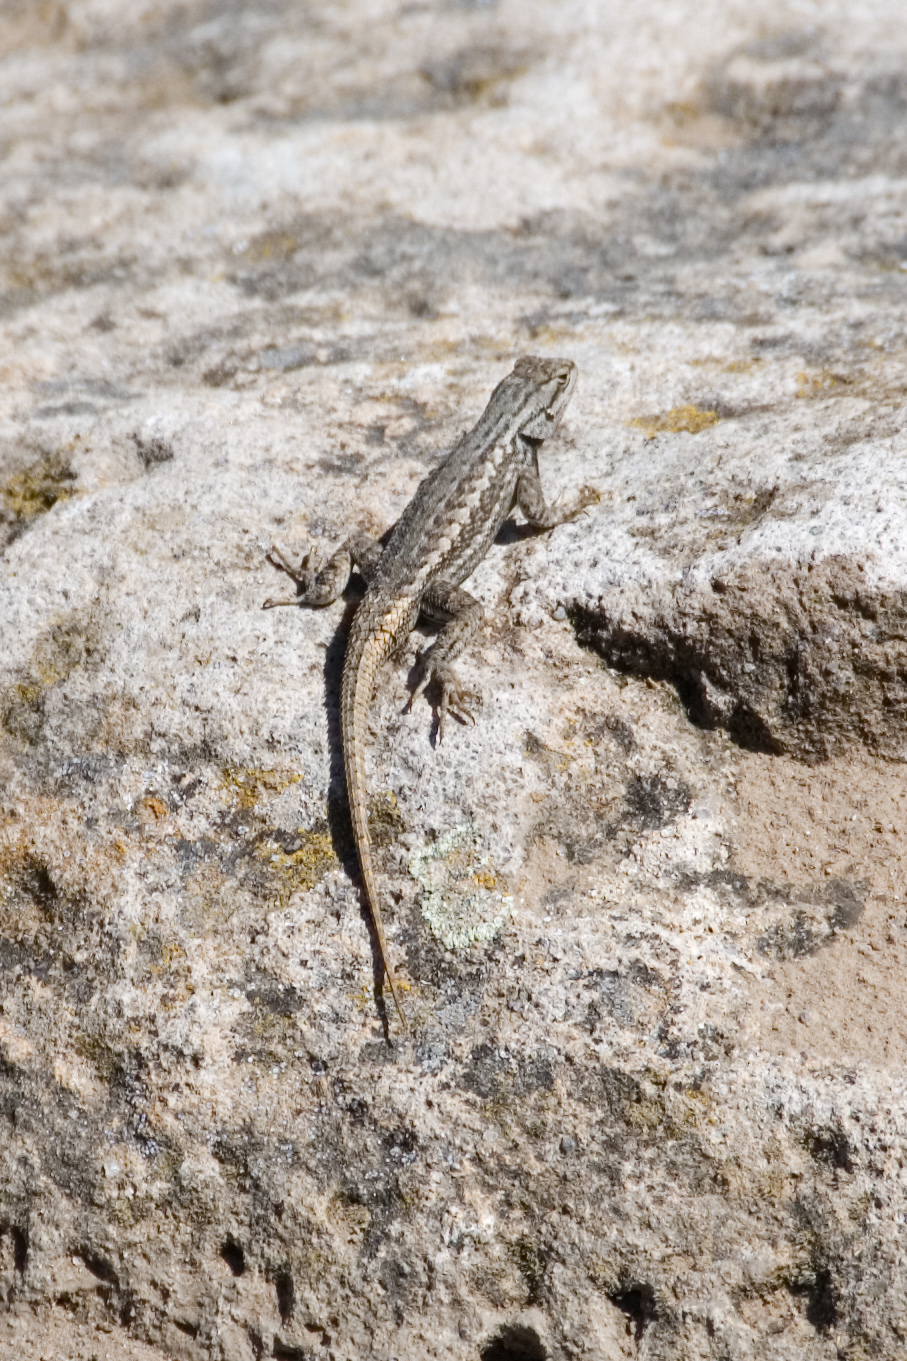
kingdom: Animalia
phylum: Chordata
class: Squamata
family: Phrynosomatidae
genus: Sceloporus
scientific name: Sceloporus
